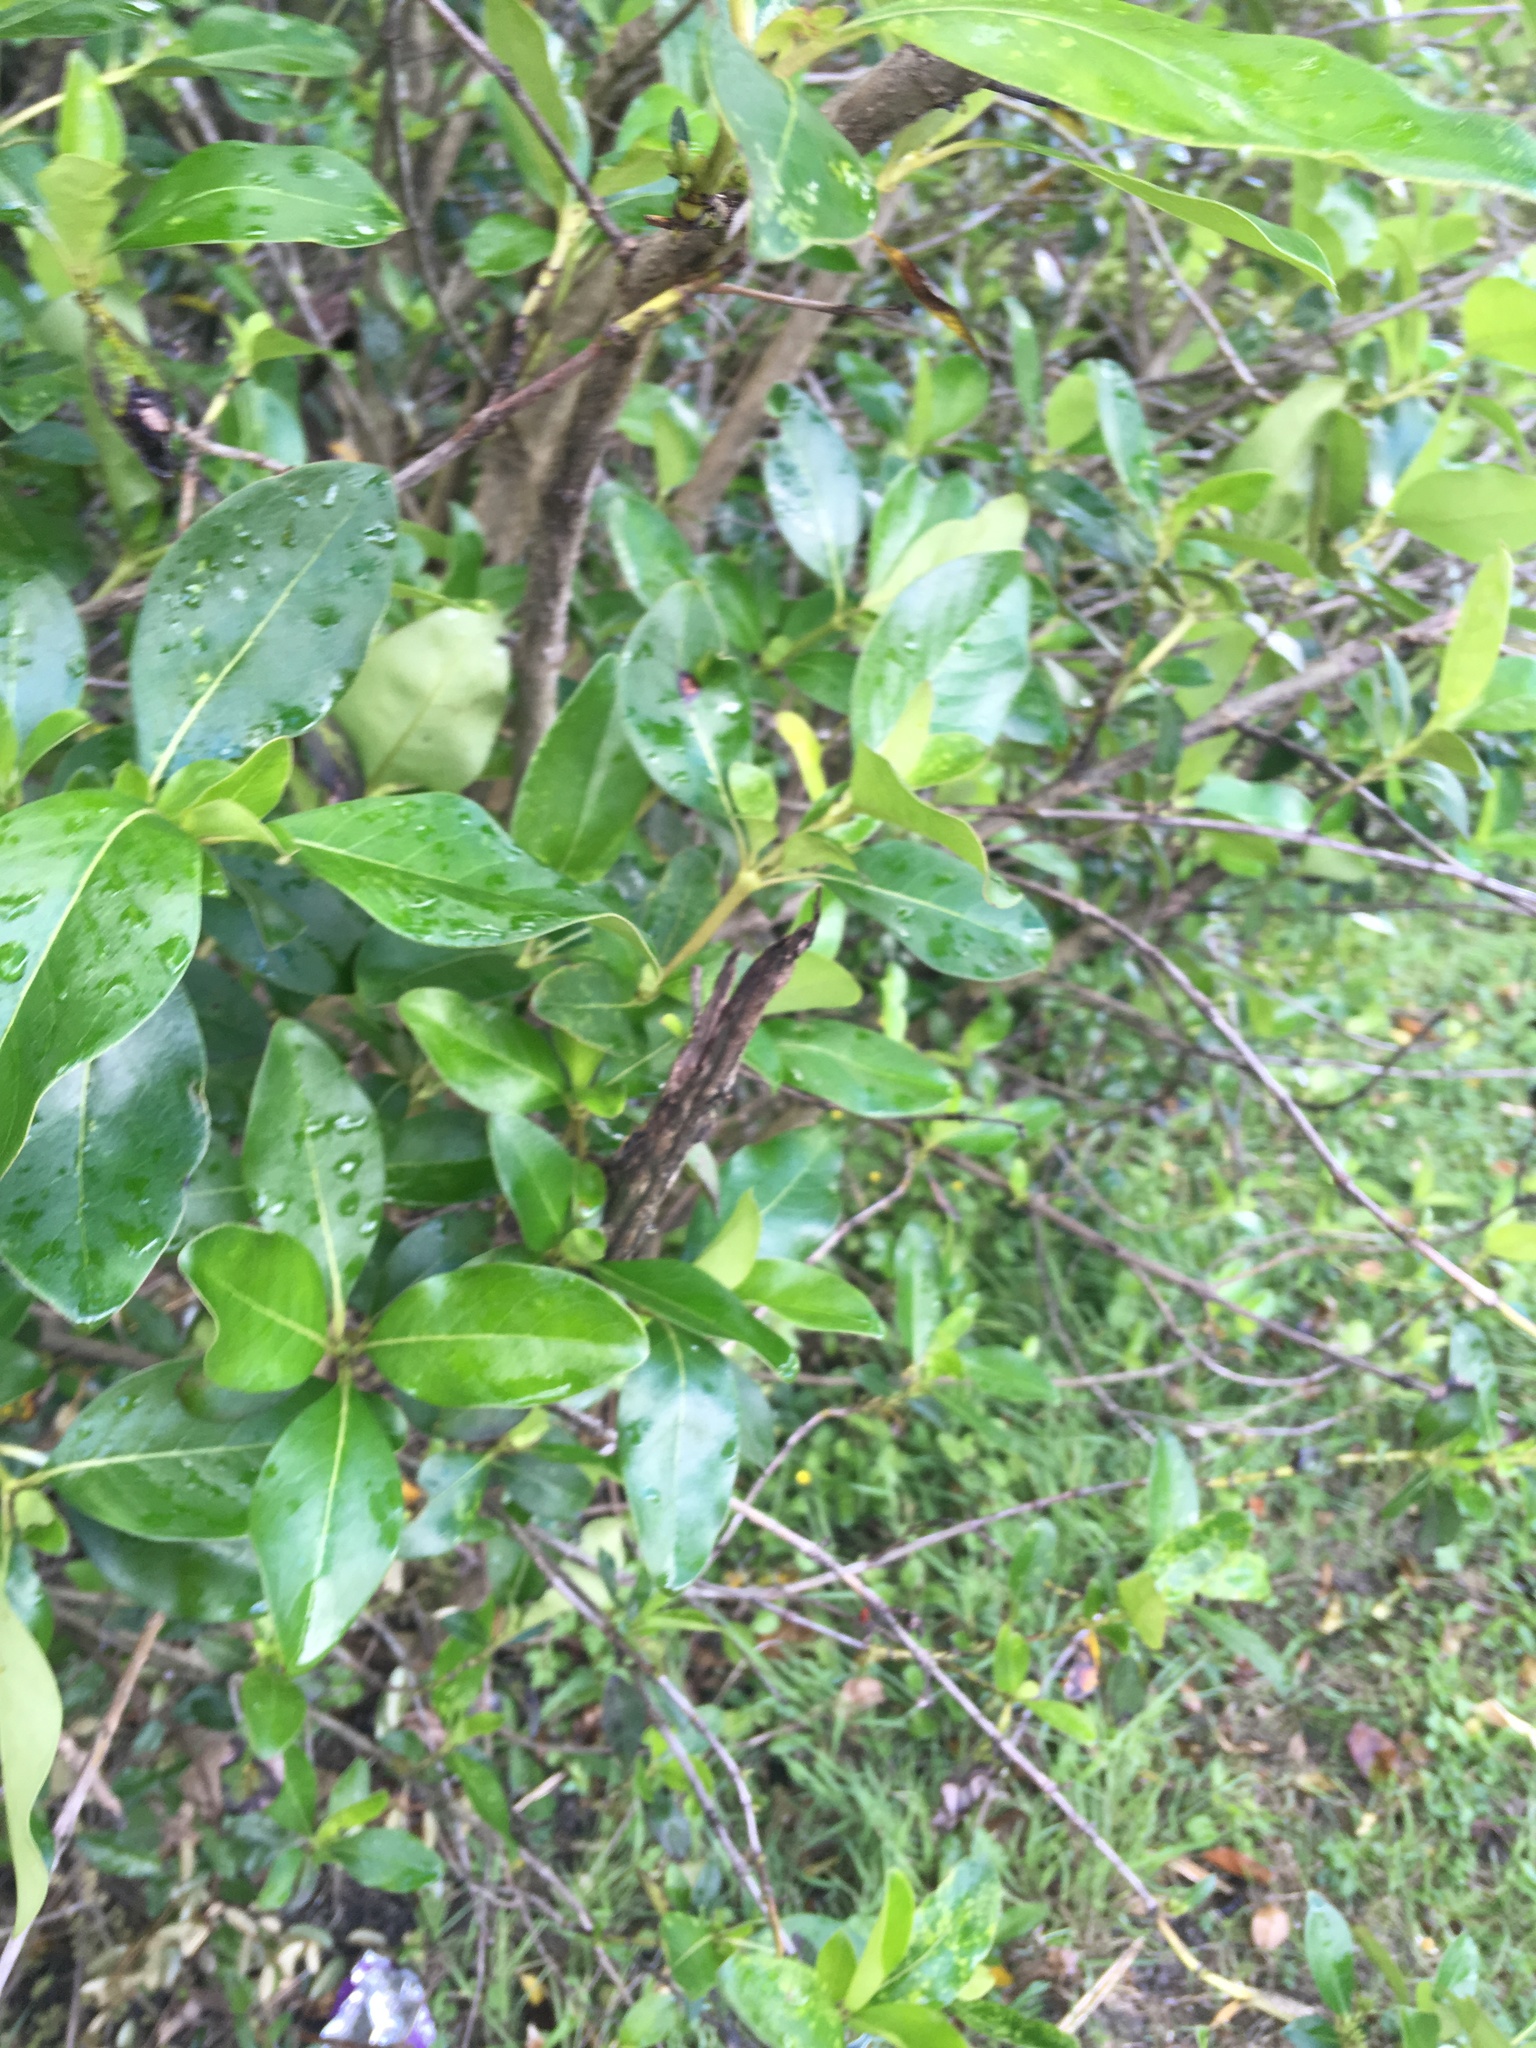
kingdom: Plantae
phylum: Tracheophyta
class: Magnoliopsida
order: Gentianales
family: Rubiaceae
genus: Coprosma
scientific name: Coprosma robusta
